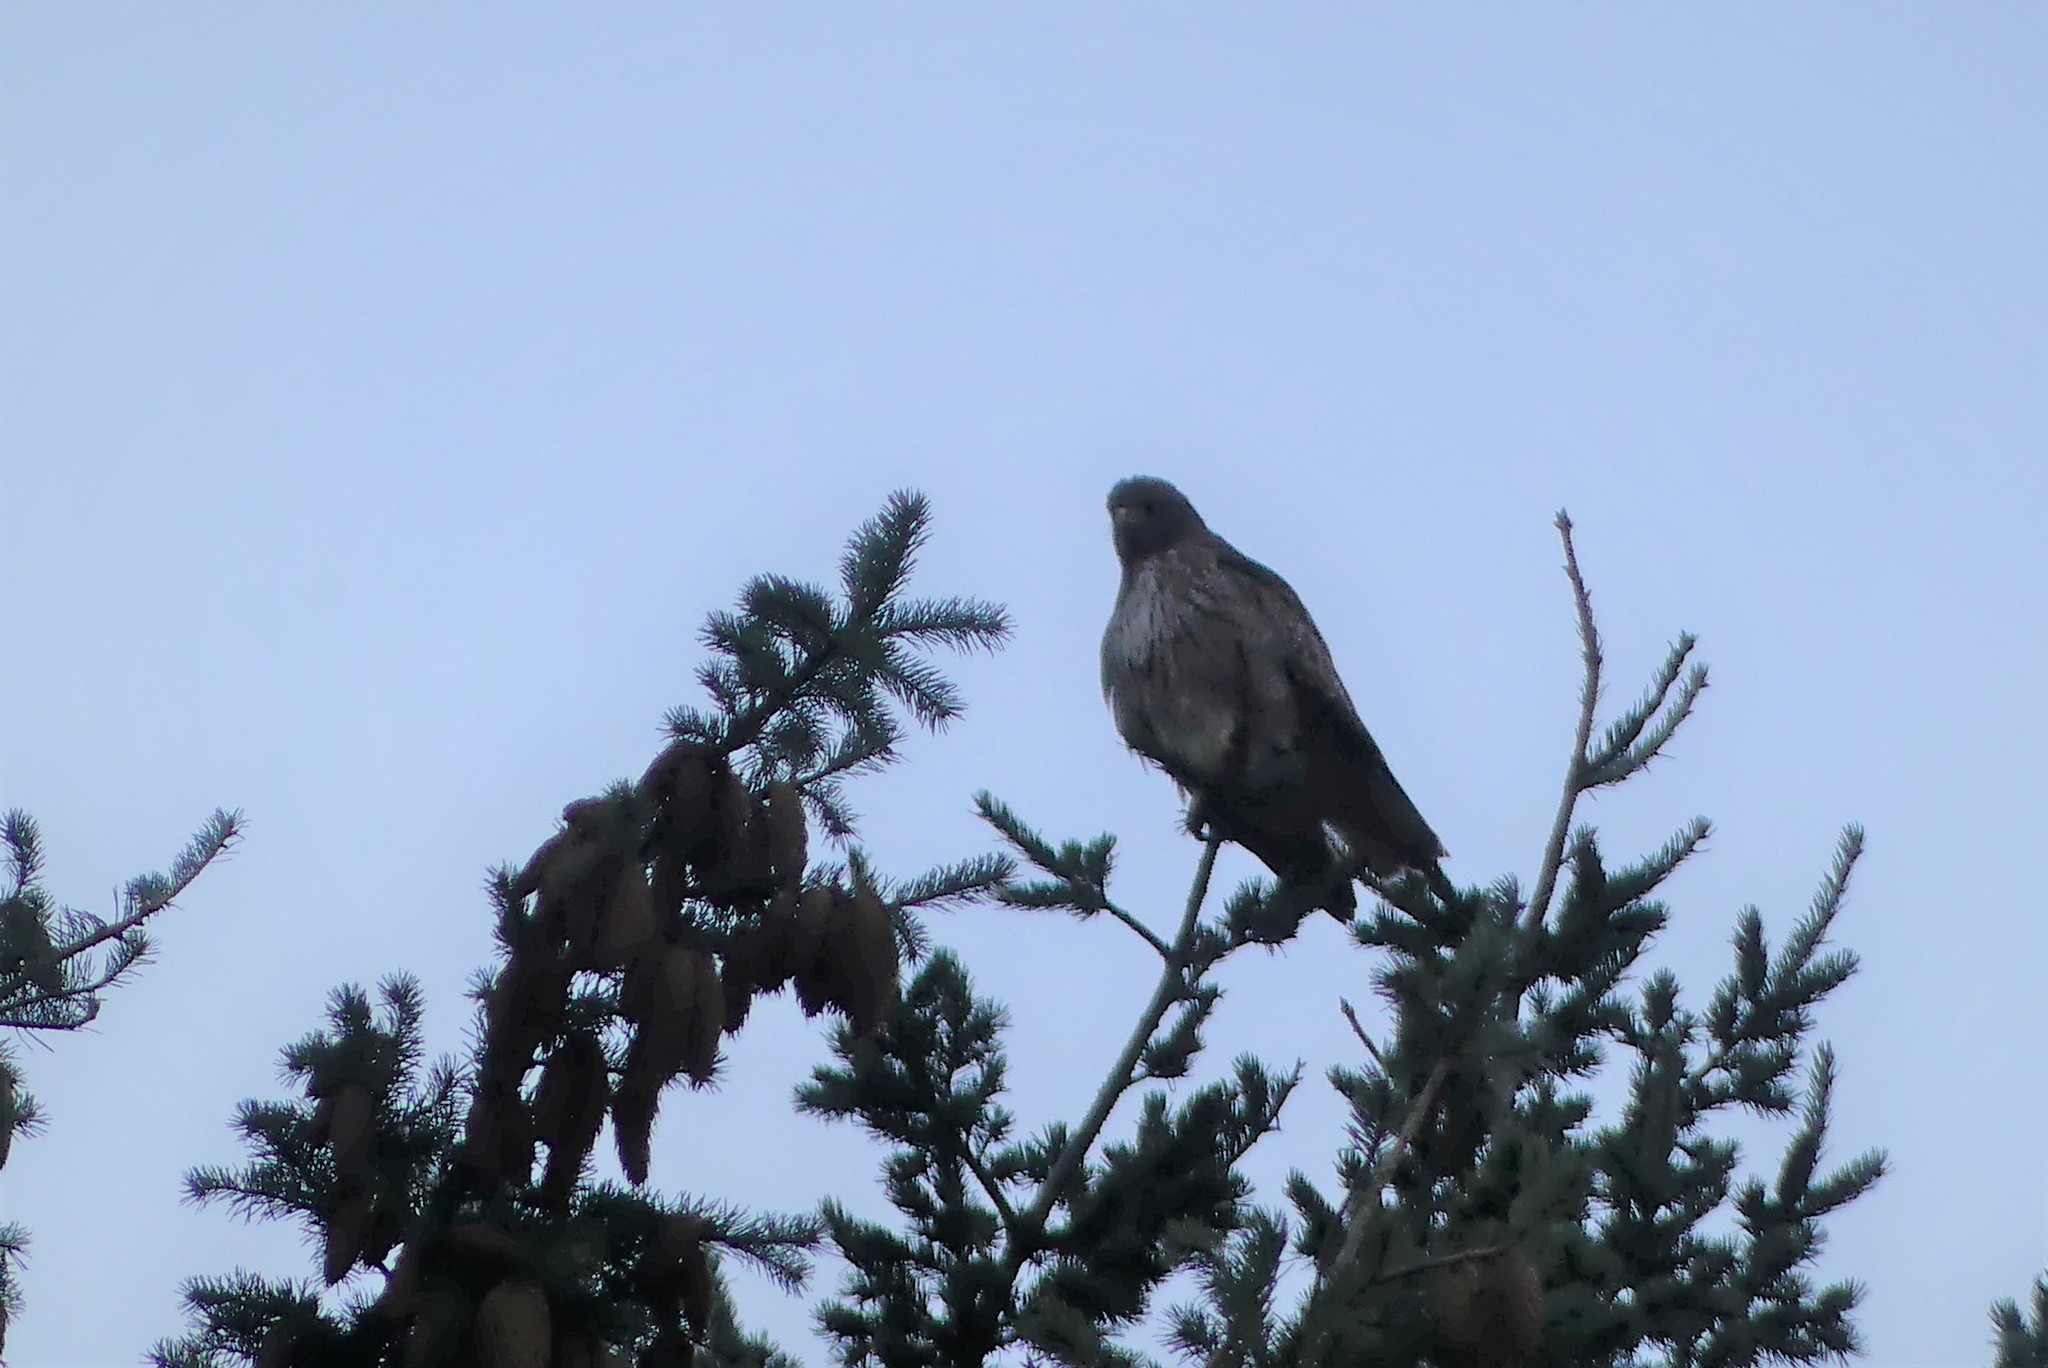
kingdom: Animalia
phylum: Chordata
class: Aves
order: Accipitriformes
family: Accipitridae
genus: Buteo
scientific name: Buteo jamaicensis
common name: Red-tailed hawk
